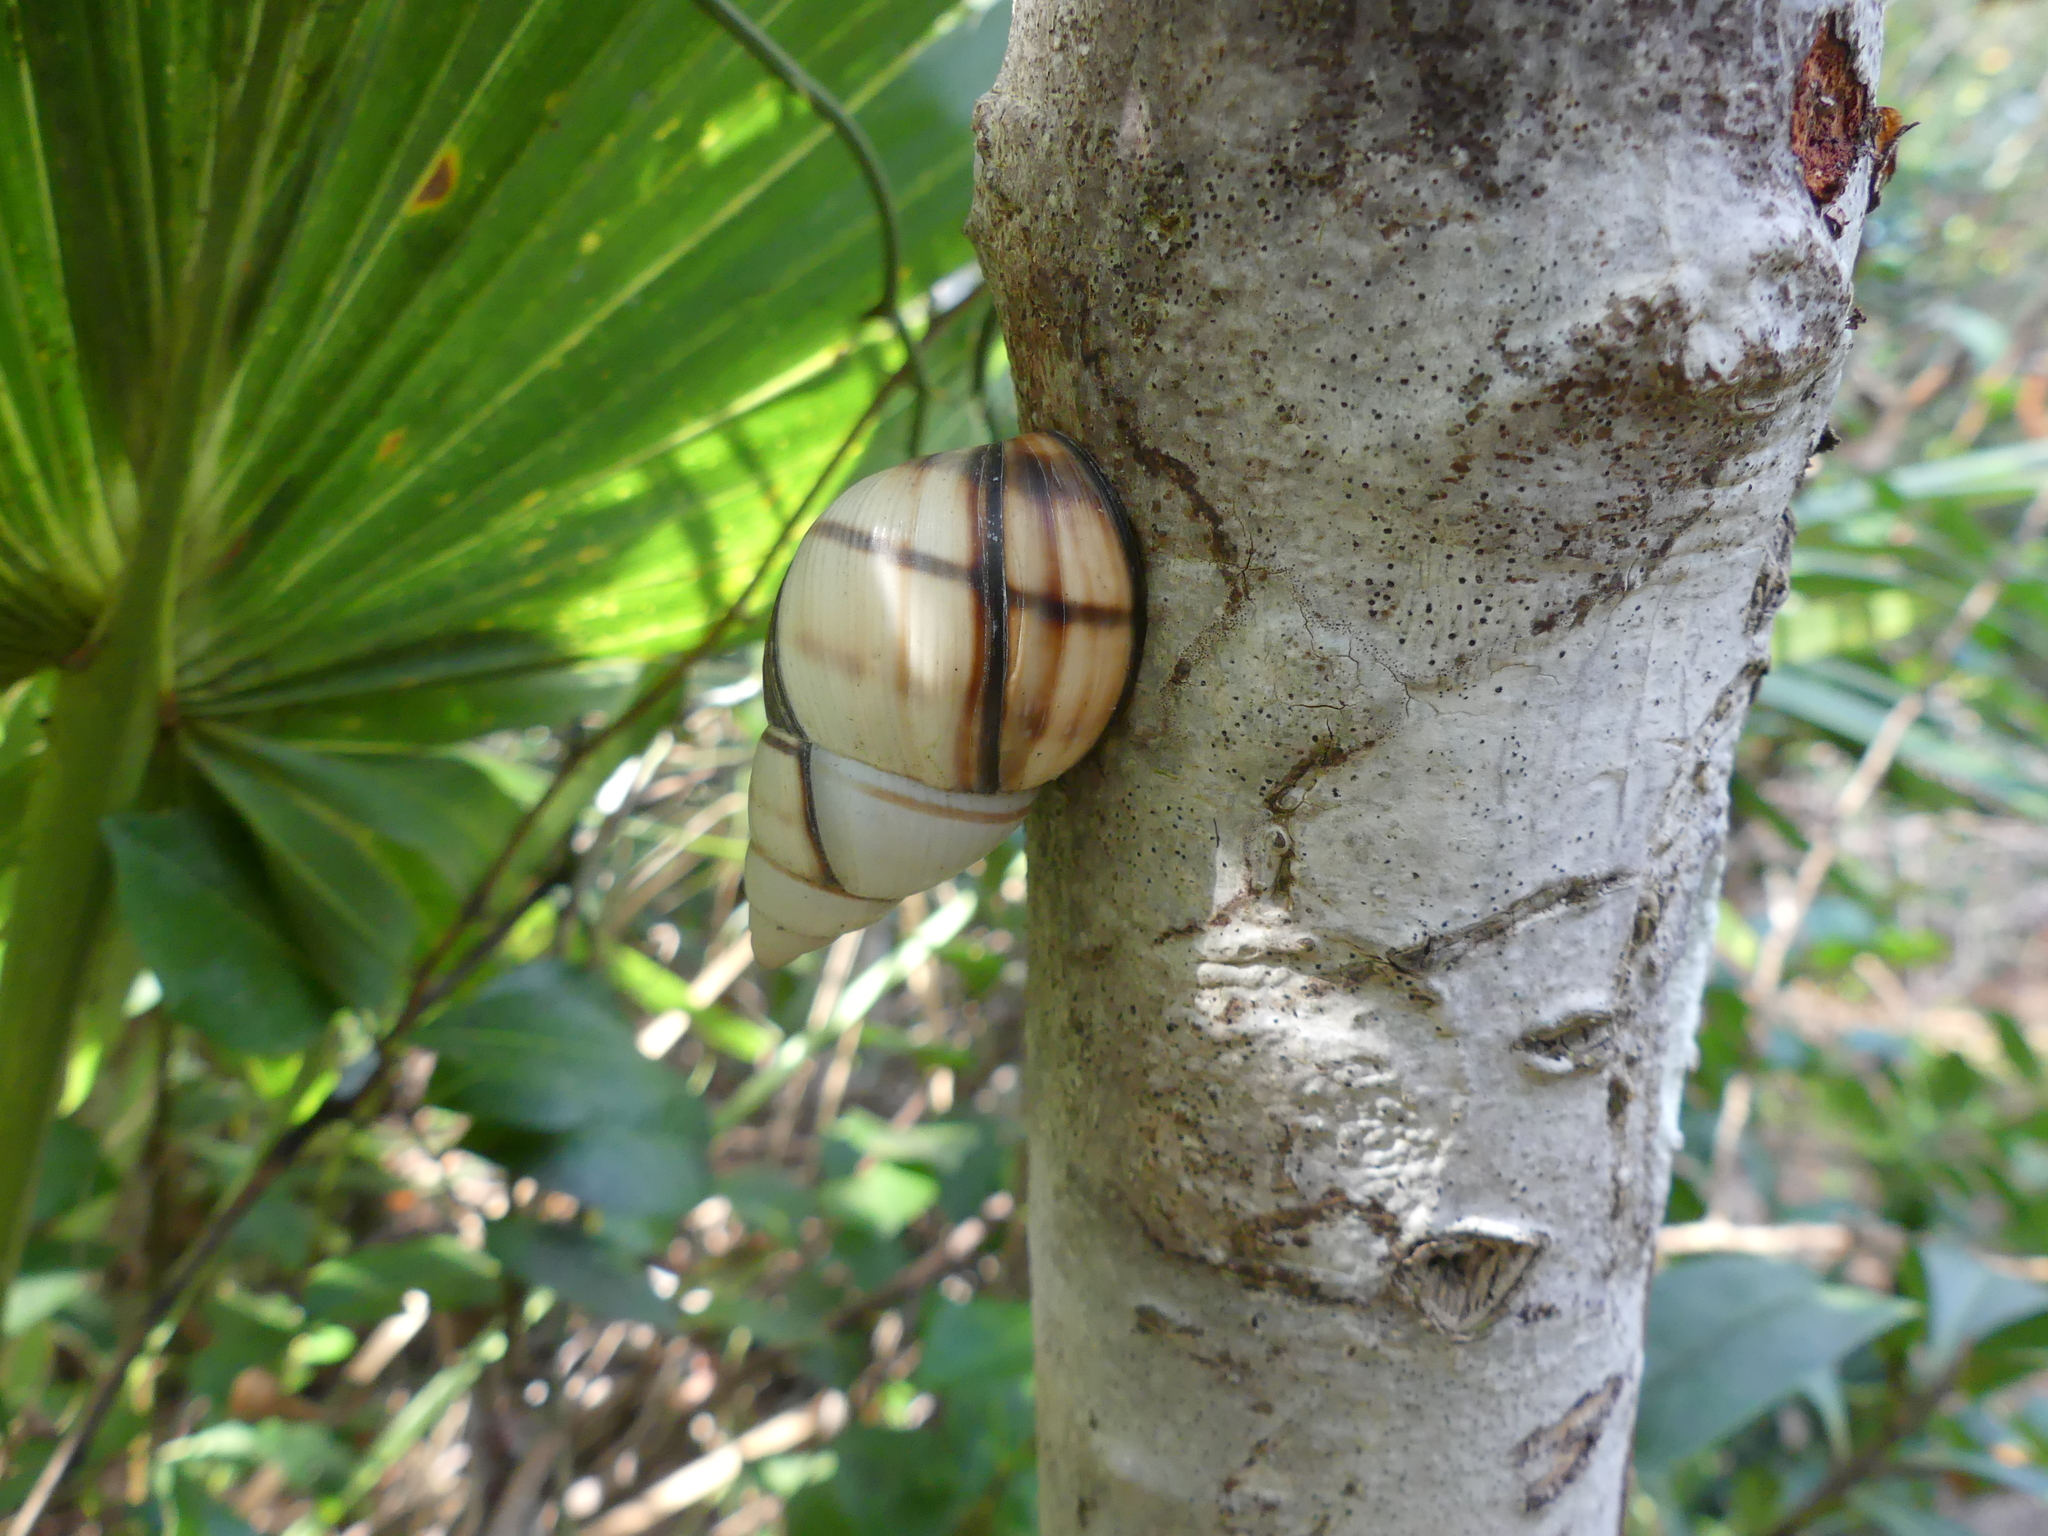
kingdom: Animalia
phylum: Mollusca
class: Gastropoda
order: Stylommatophora
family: Orthalicidae
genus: Orthalicus
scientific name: Orthalicus floridensis
